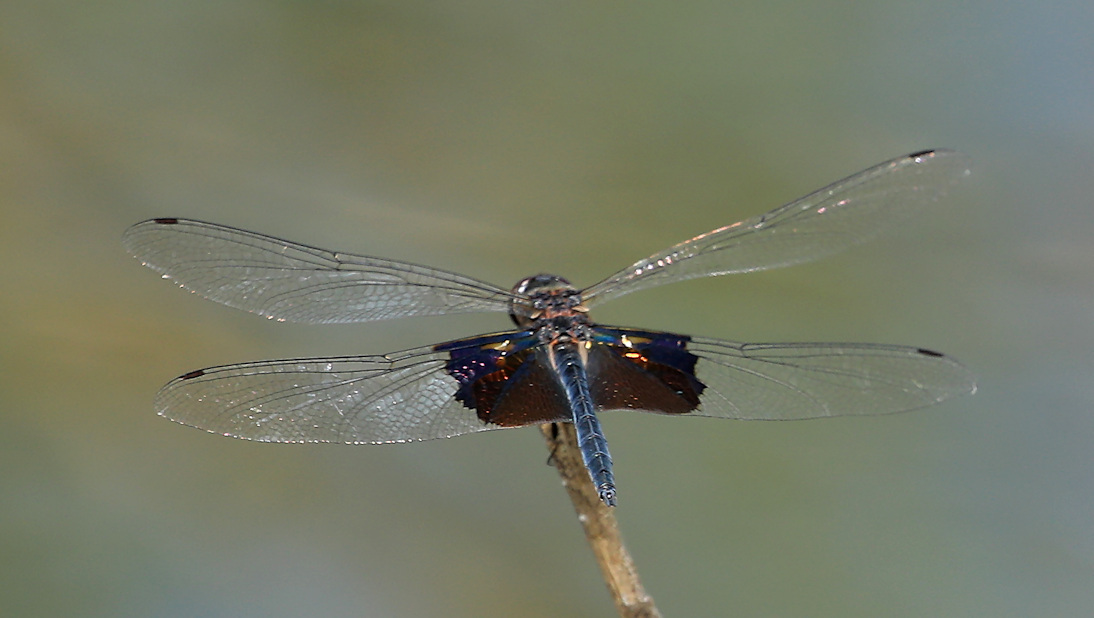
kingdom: Animalia
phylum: Arthropoda
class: Insecta
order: Odonata
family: Libellulidae
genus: Rhyothemis
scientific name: Rhyothemis semihyalina
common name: Phantom flutterer
